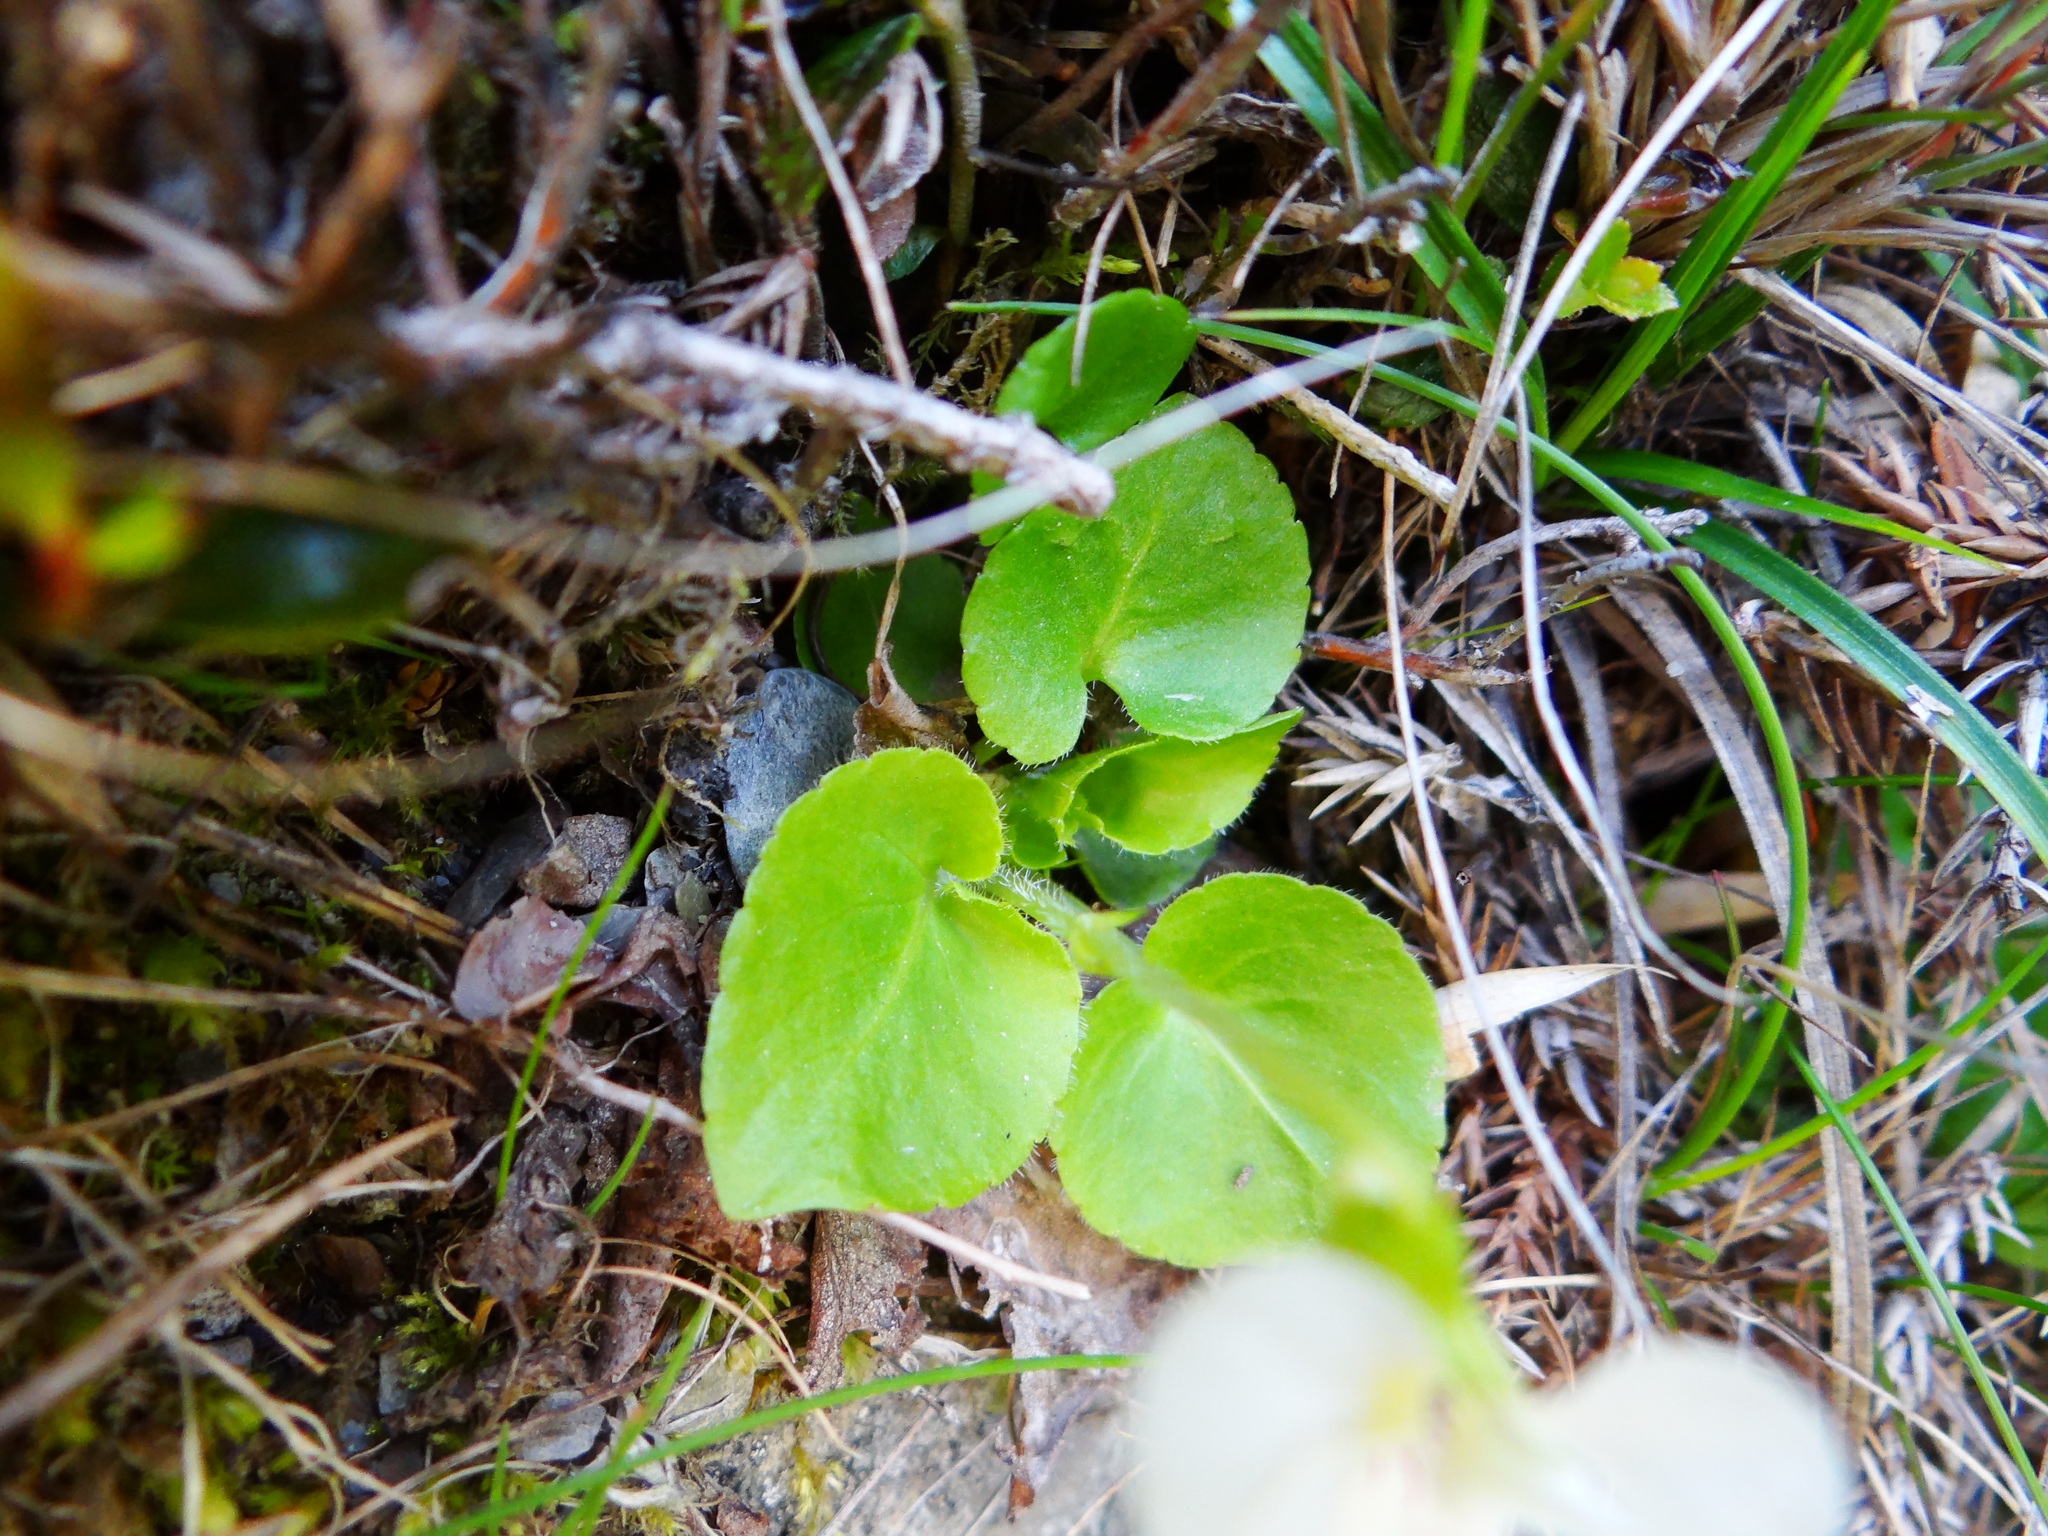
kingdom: Plantae
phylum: Tracheophyta
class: Magnoliopsida
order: Malpighiales
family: Violaceae
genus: Viola
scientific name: Viola adenothrix
